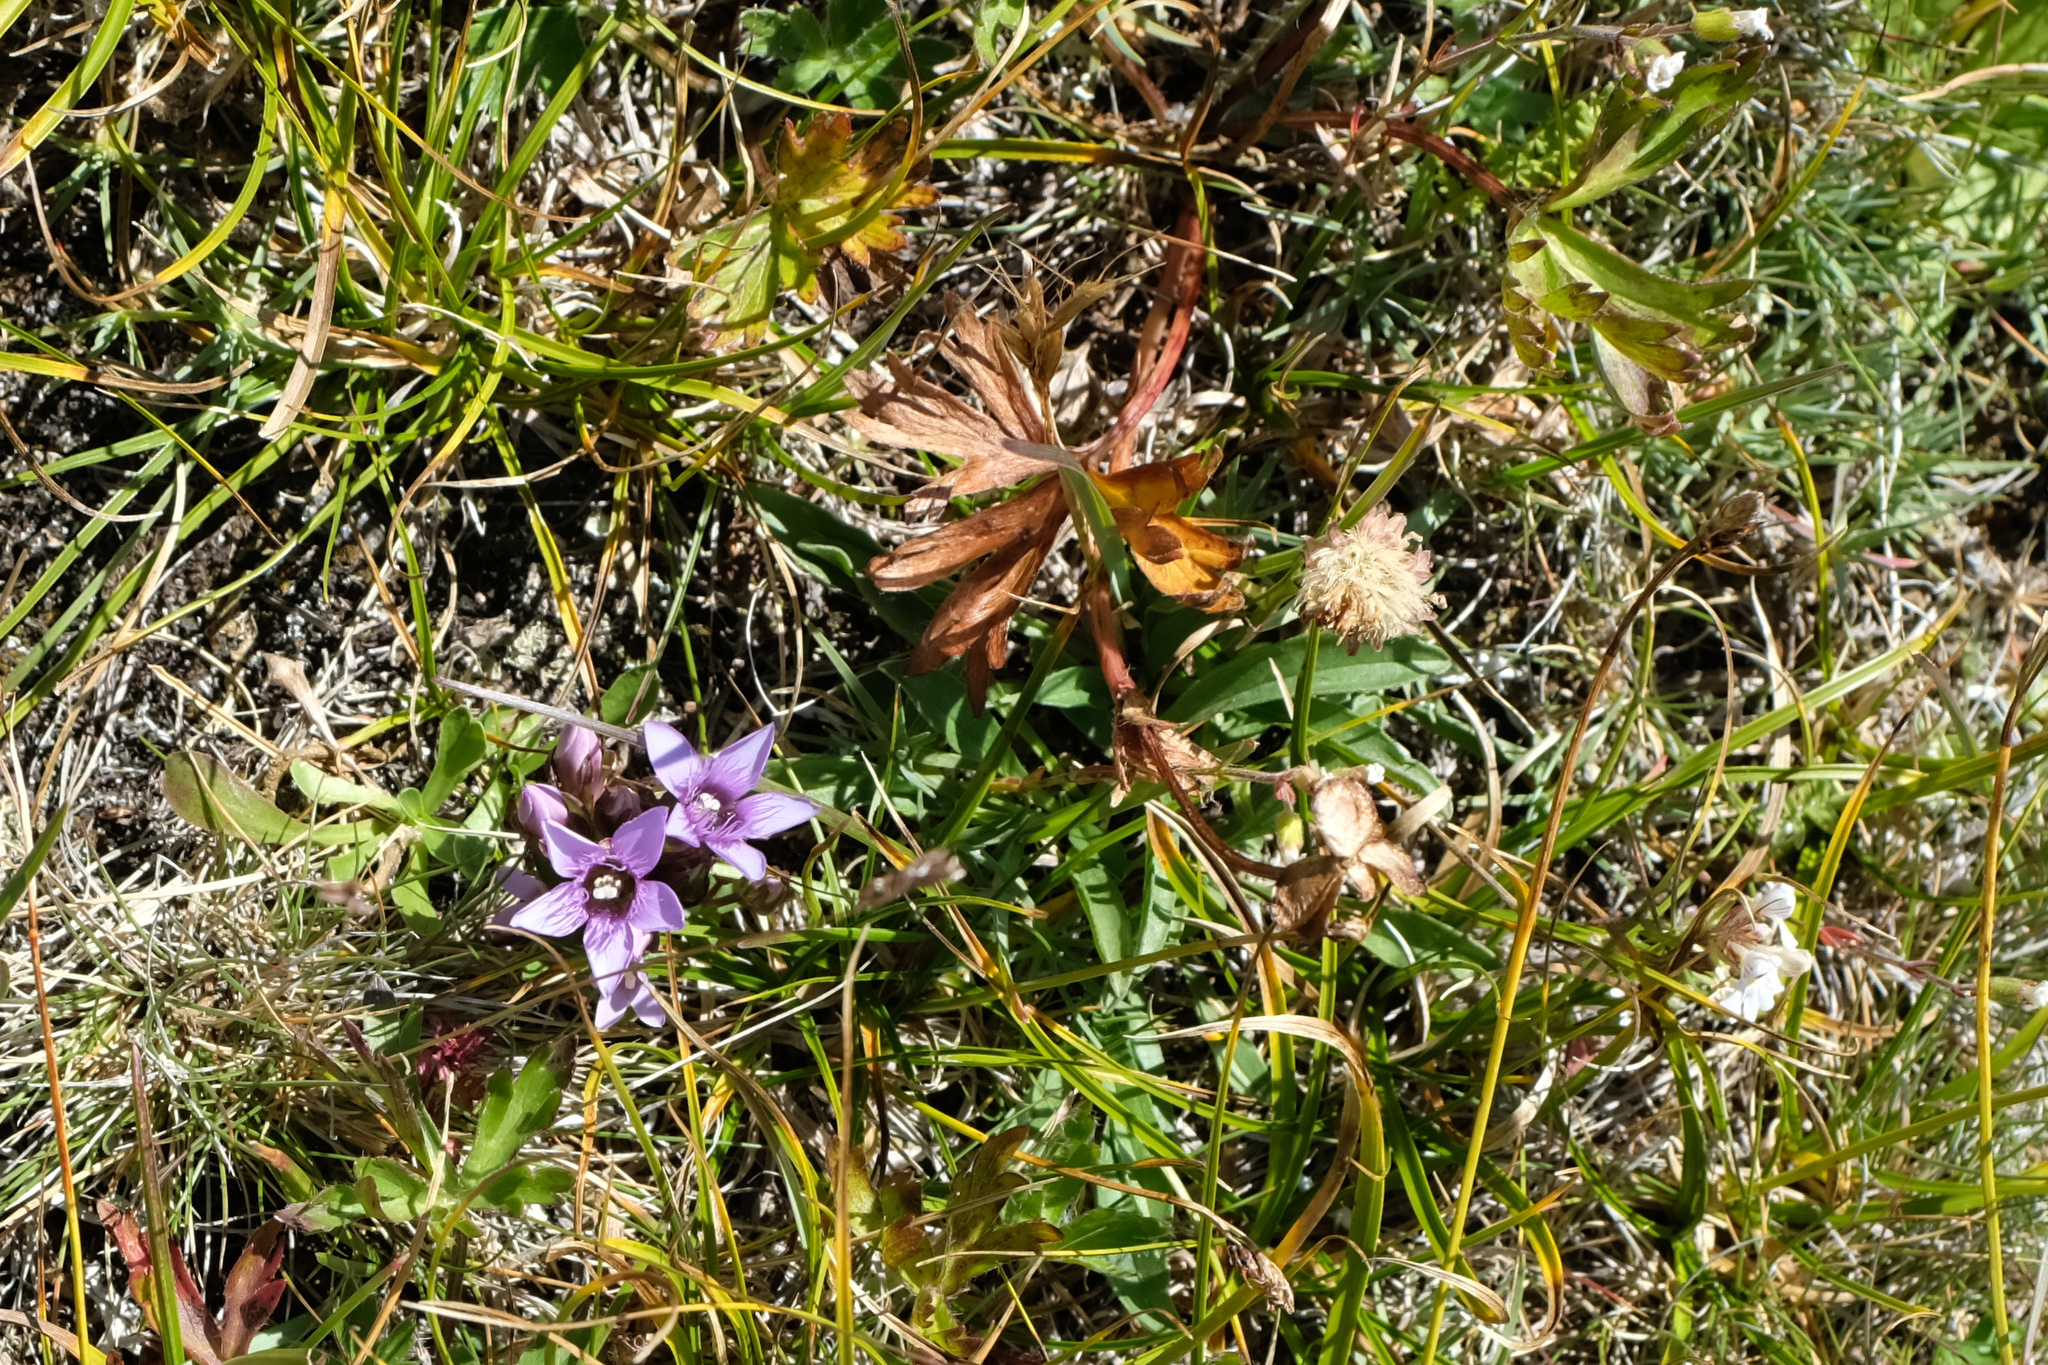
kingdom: Plantae
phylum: Tracheophyta
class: Magnoliopsida
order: Gentianales
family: Gentianaceae
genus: Gentianella
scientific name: Gentianella biebersteinii
